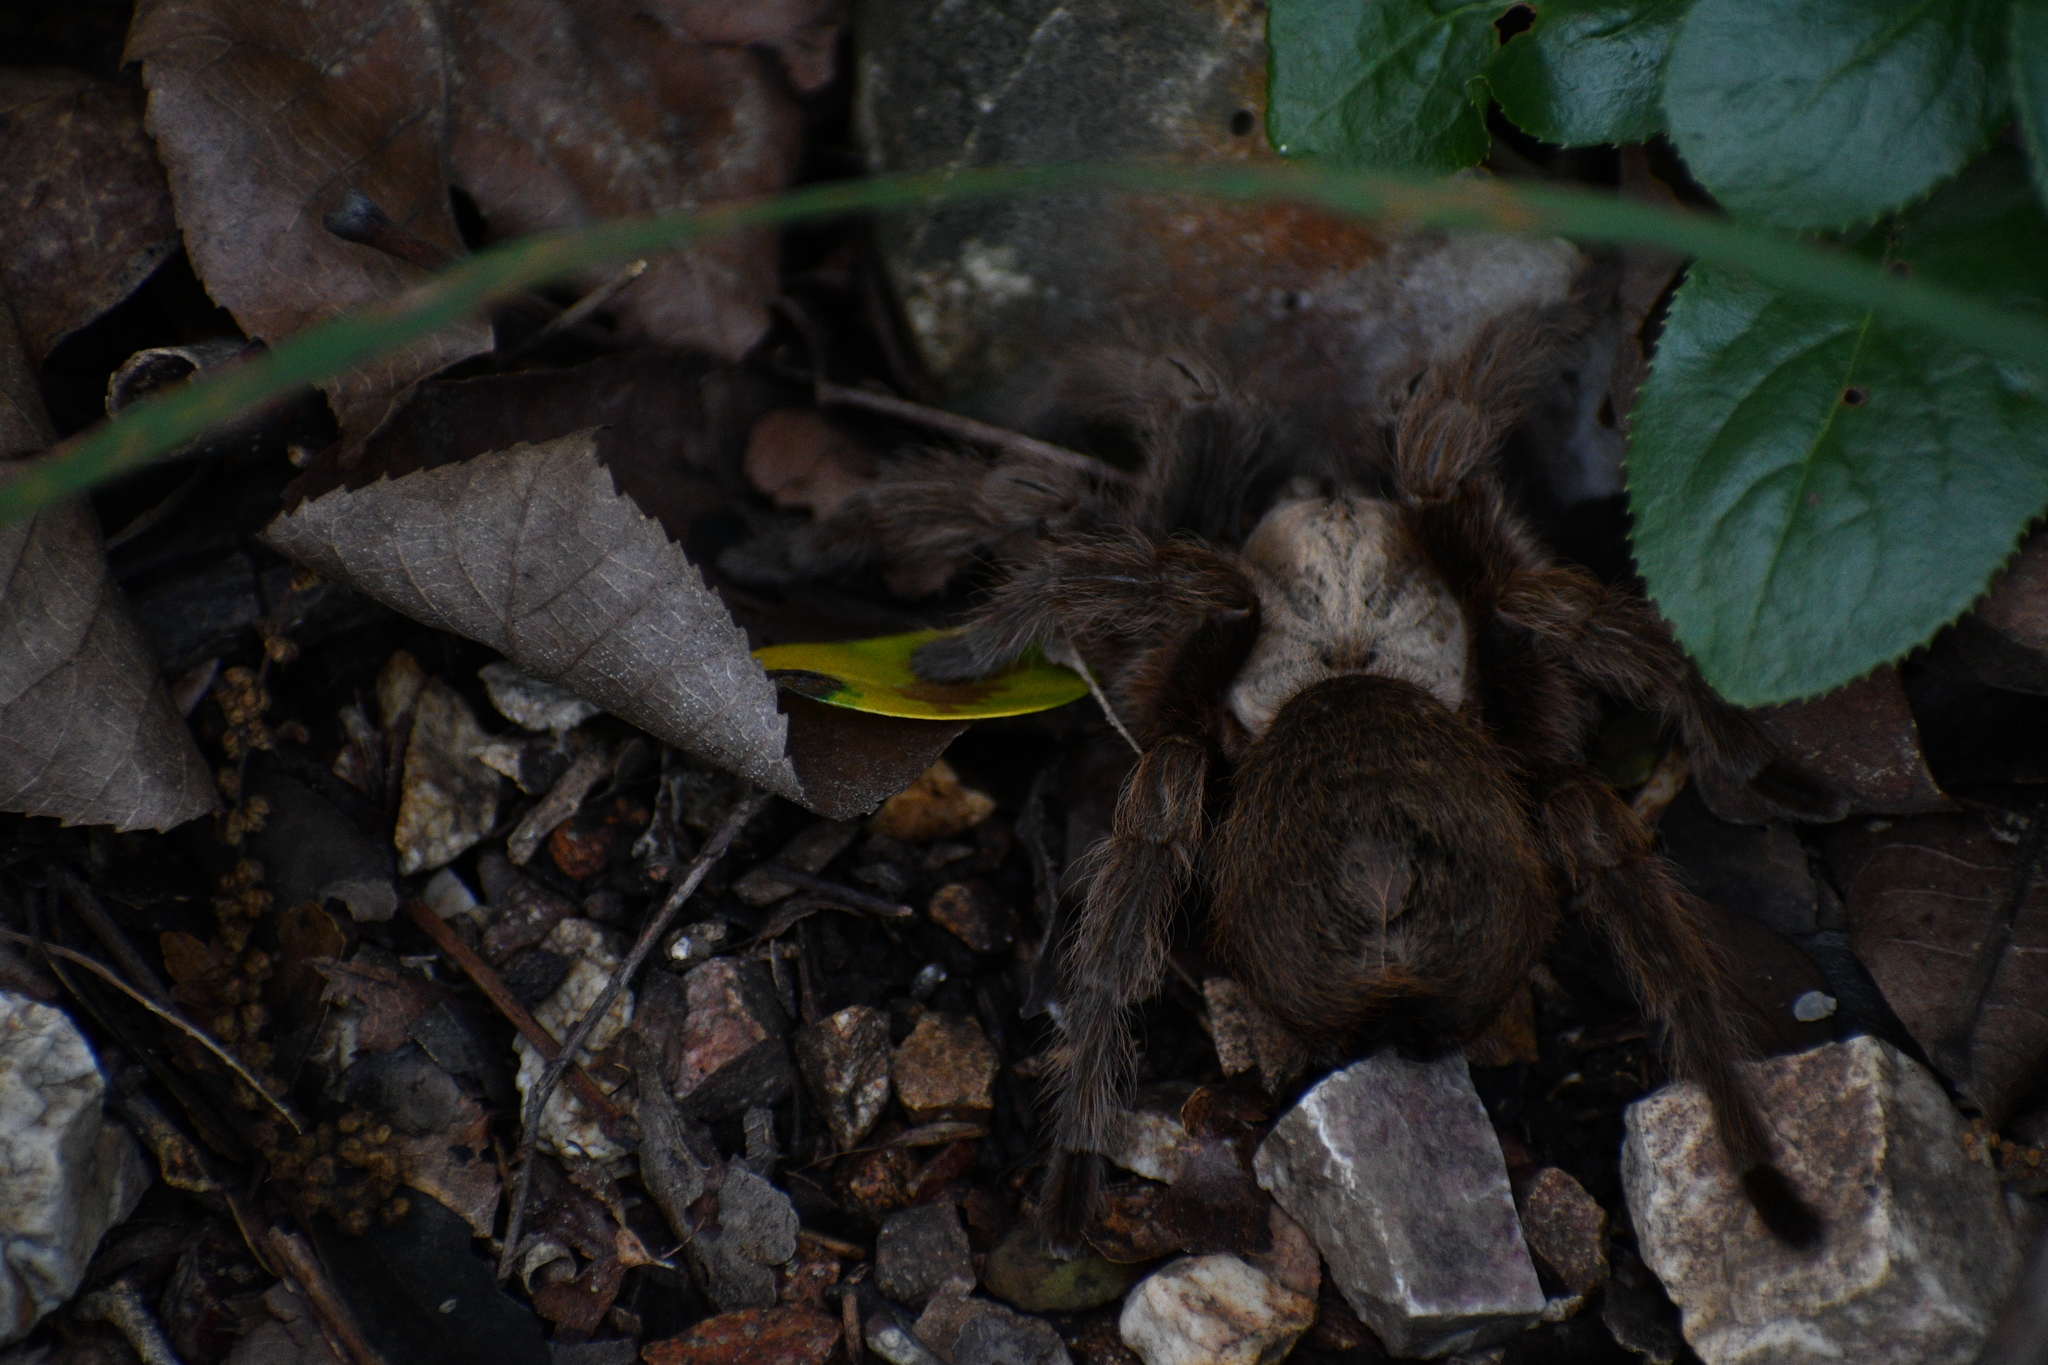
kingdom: Animalia
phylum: Arthropoda
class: Arachnida
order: Araneae
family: Theraphosidae
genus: Aphonopelma
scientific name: Aphonopelma hentzi
